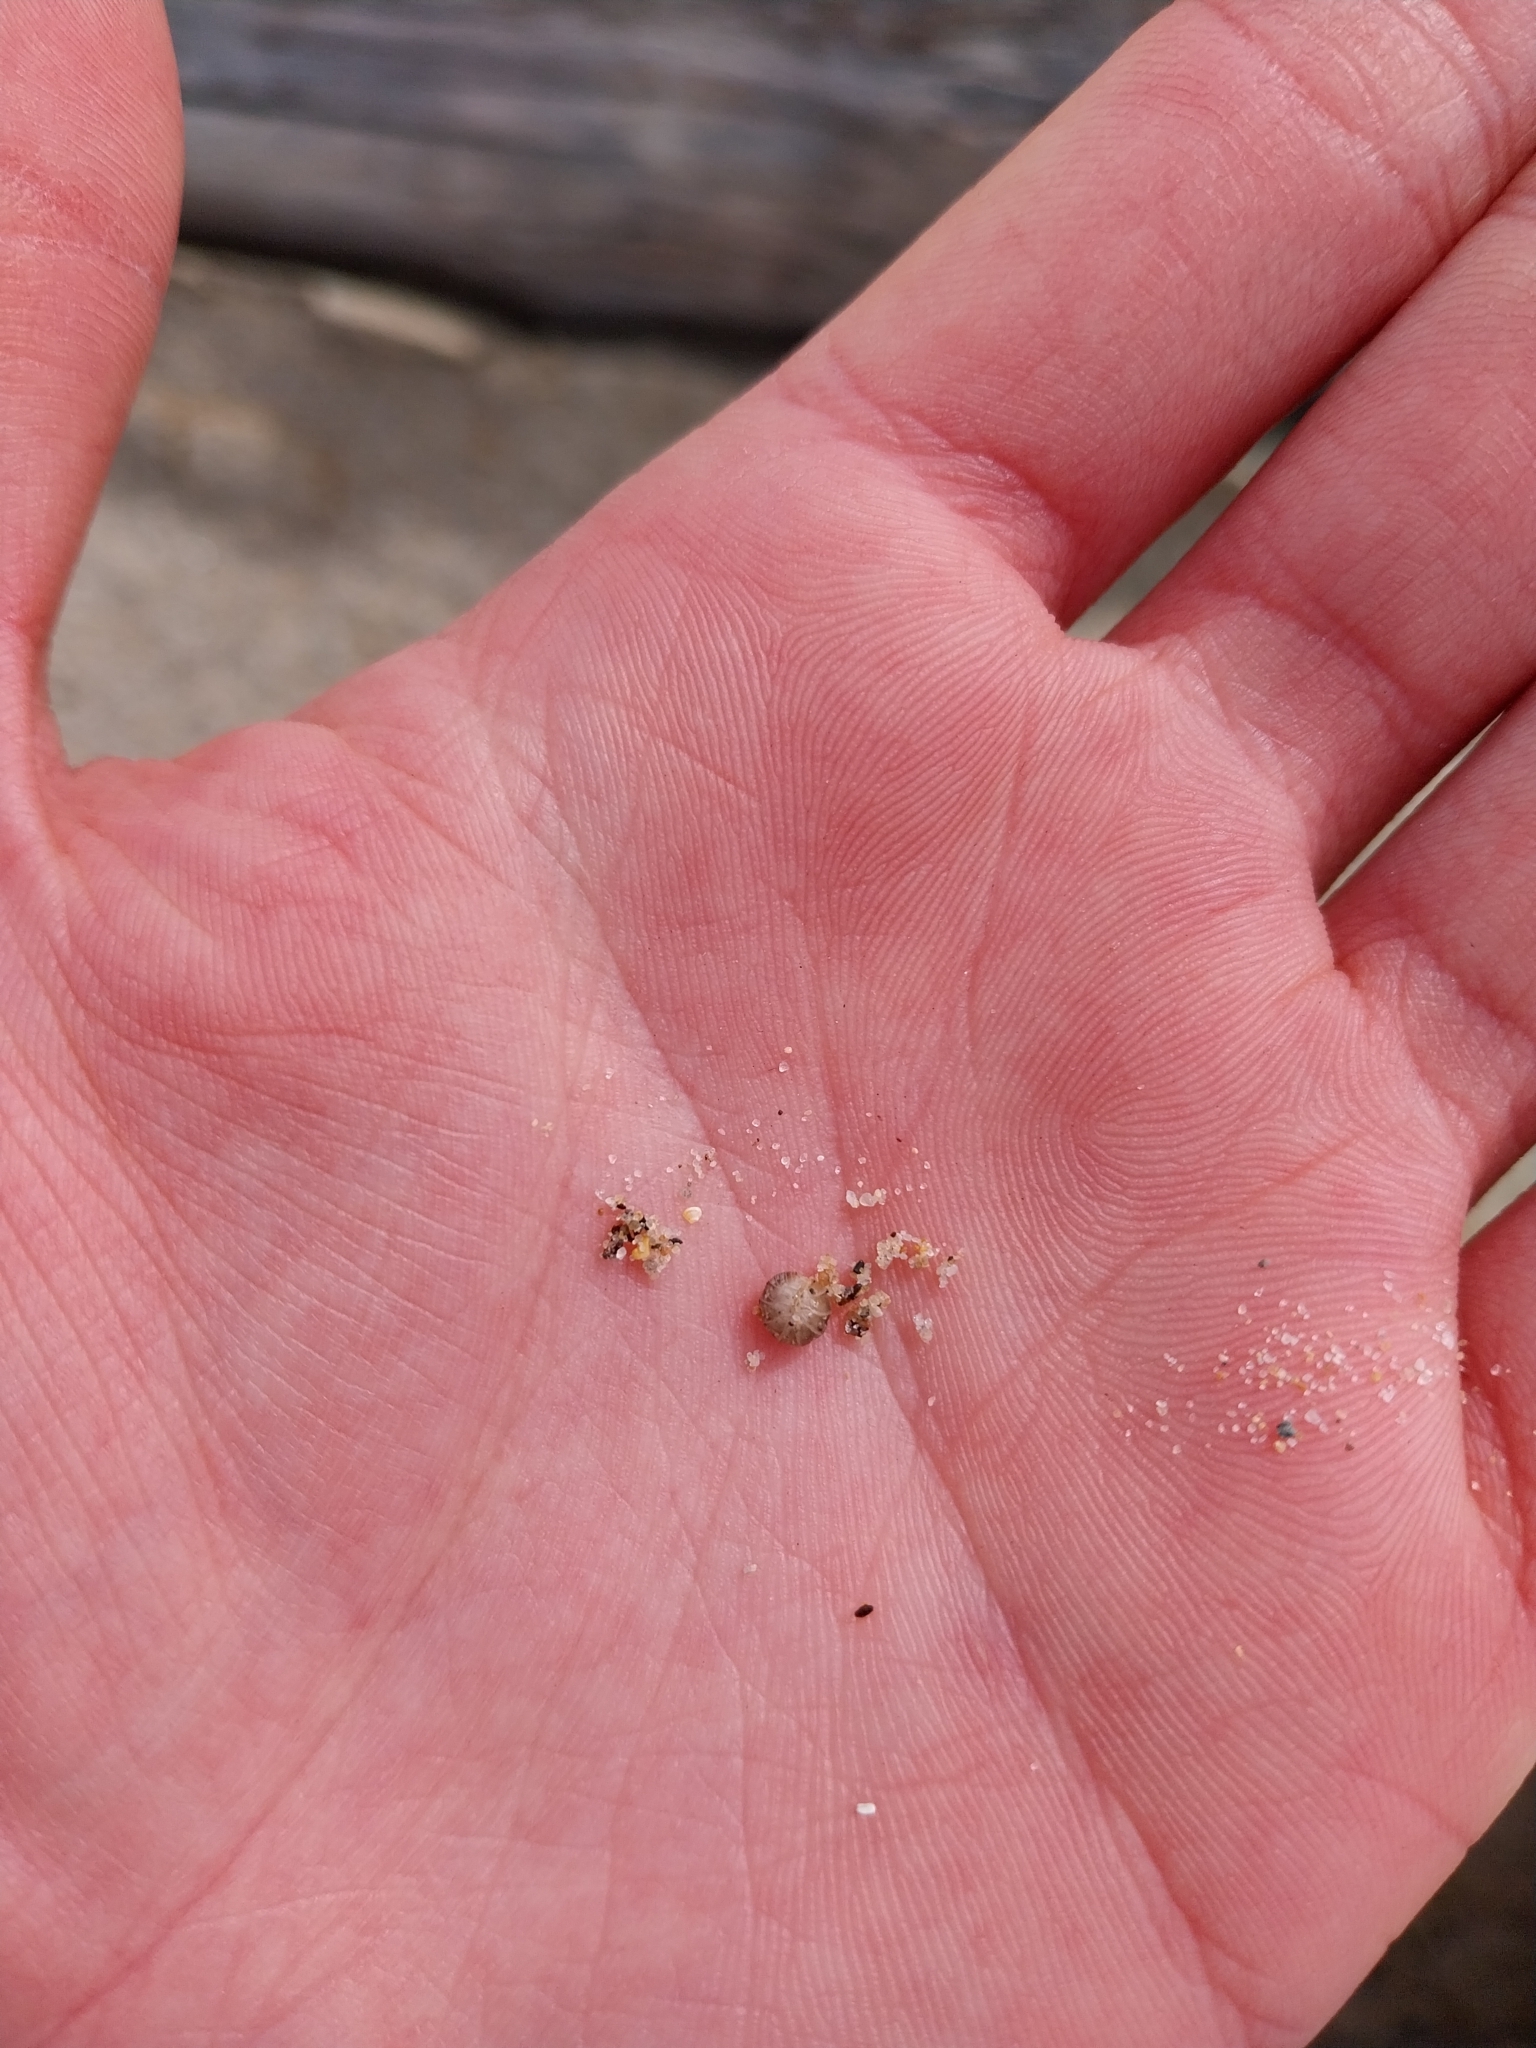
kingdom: Animalia
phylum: Arthropoda
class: Malacostraca
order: Isopoda
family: Armadillidiidae
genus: Armadillidium
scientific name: Armadillidium album
